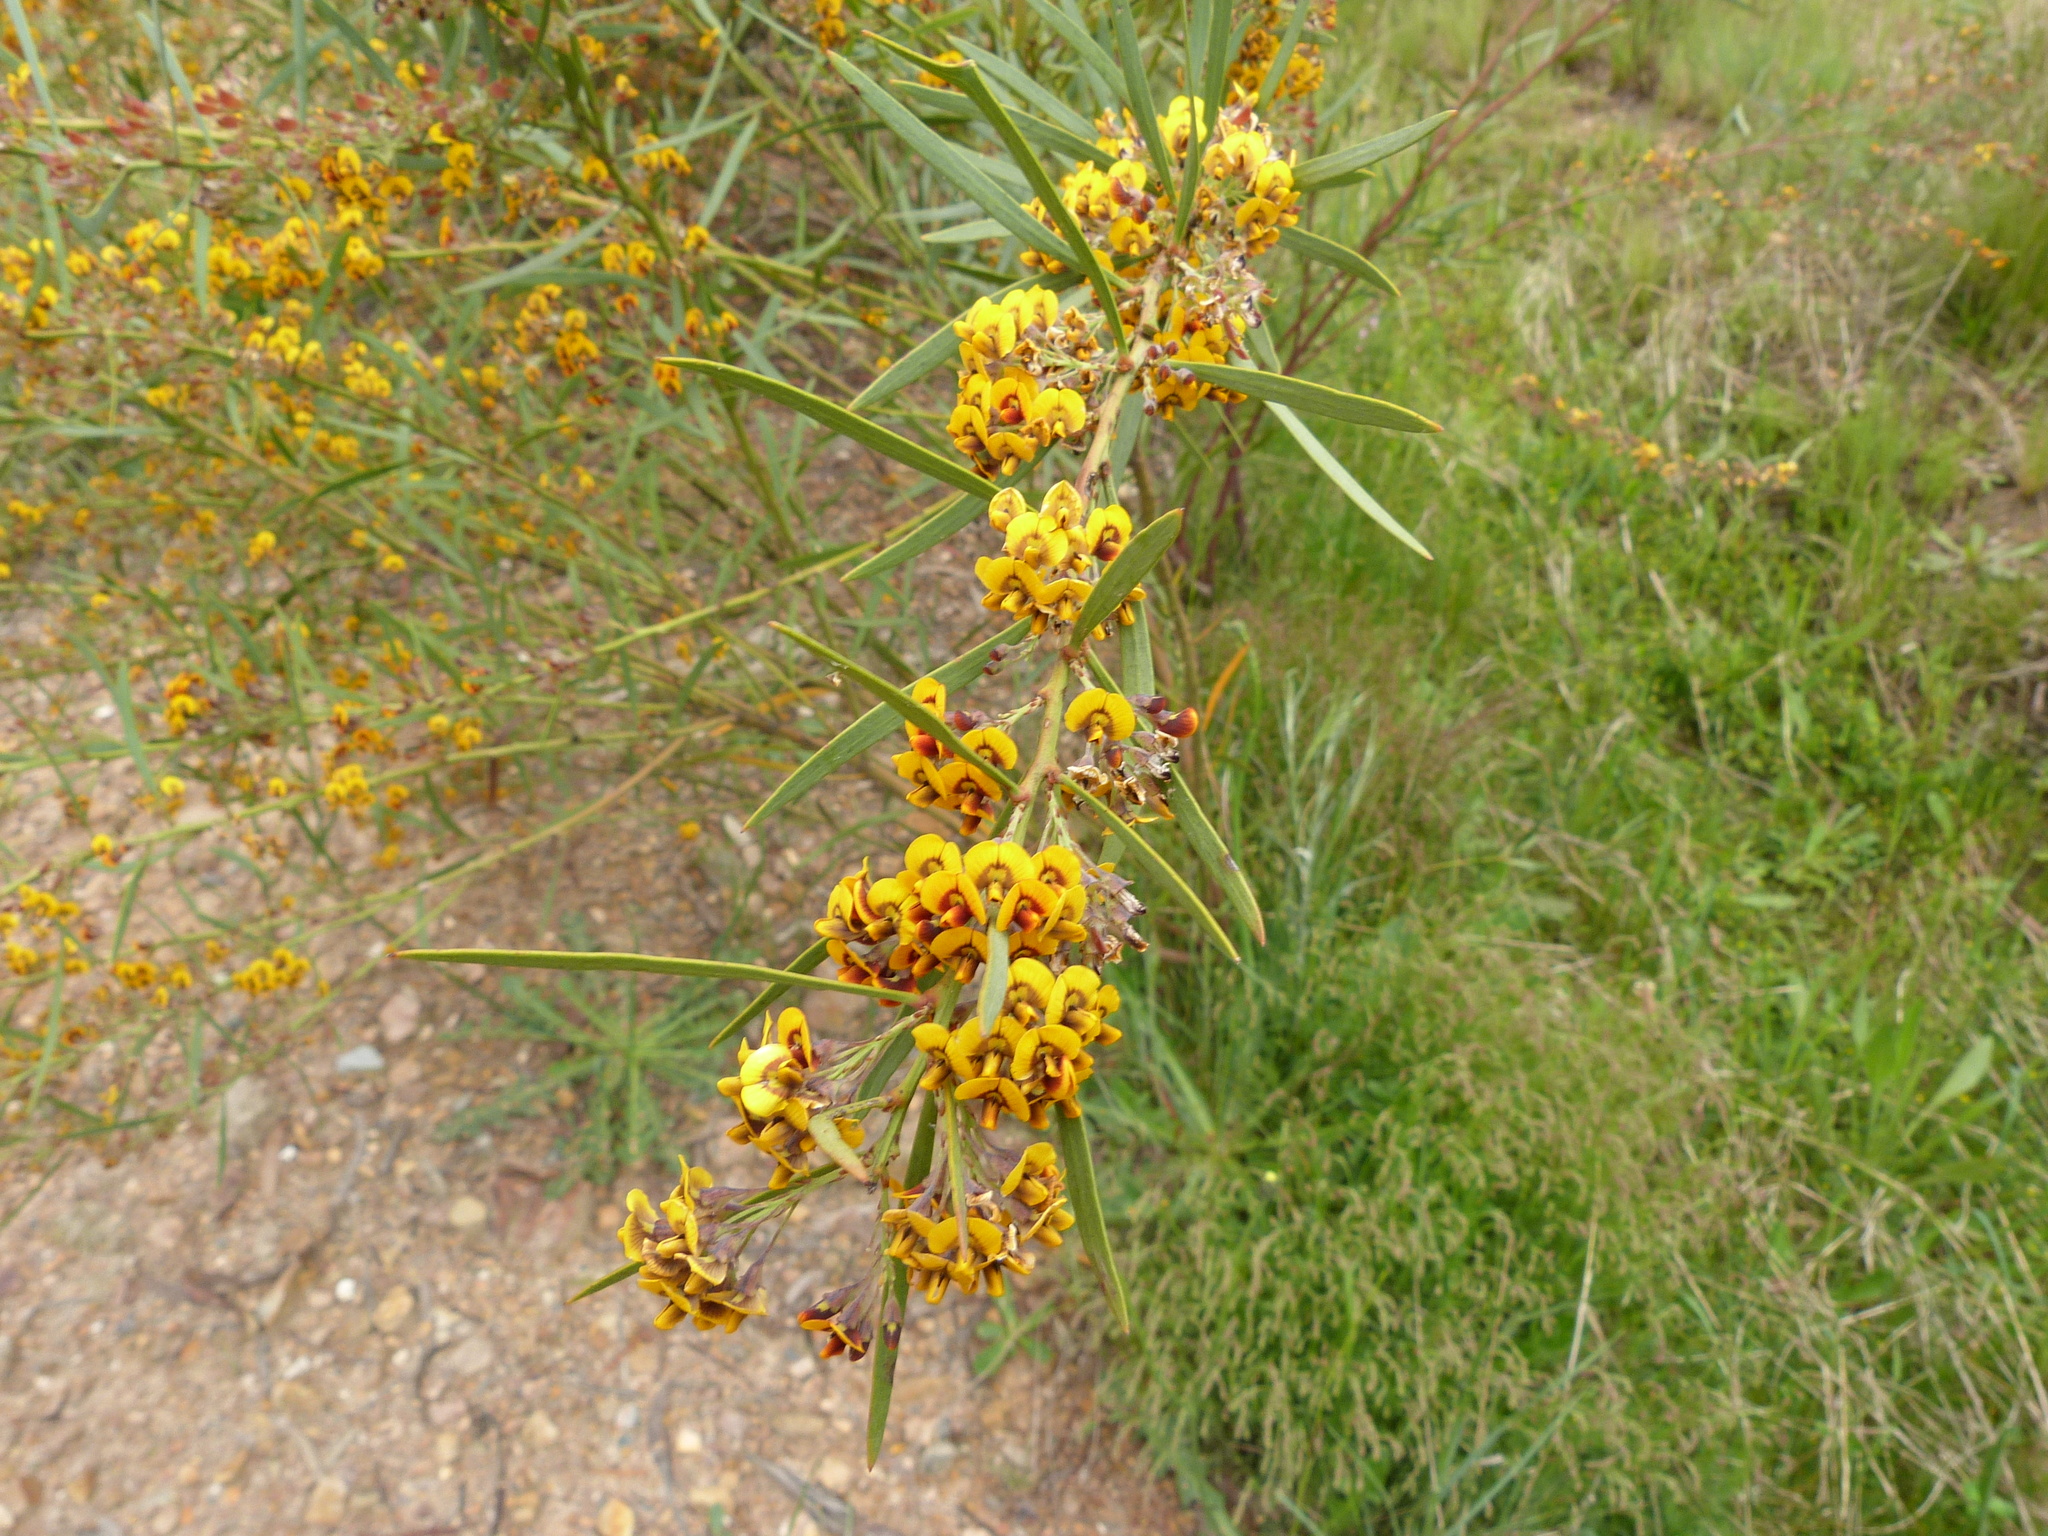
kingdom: Plantae
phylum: Tracheophyta
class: Magnoliopsida
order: Fabales
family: Fabaceae
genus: Daviesia
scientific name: Daviesia mimosoides
